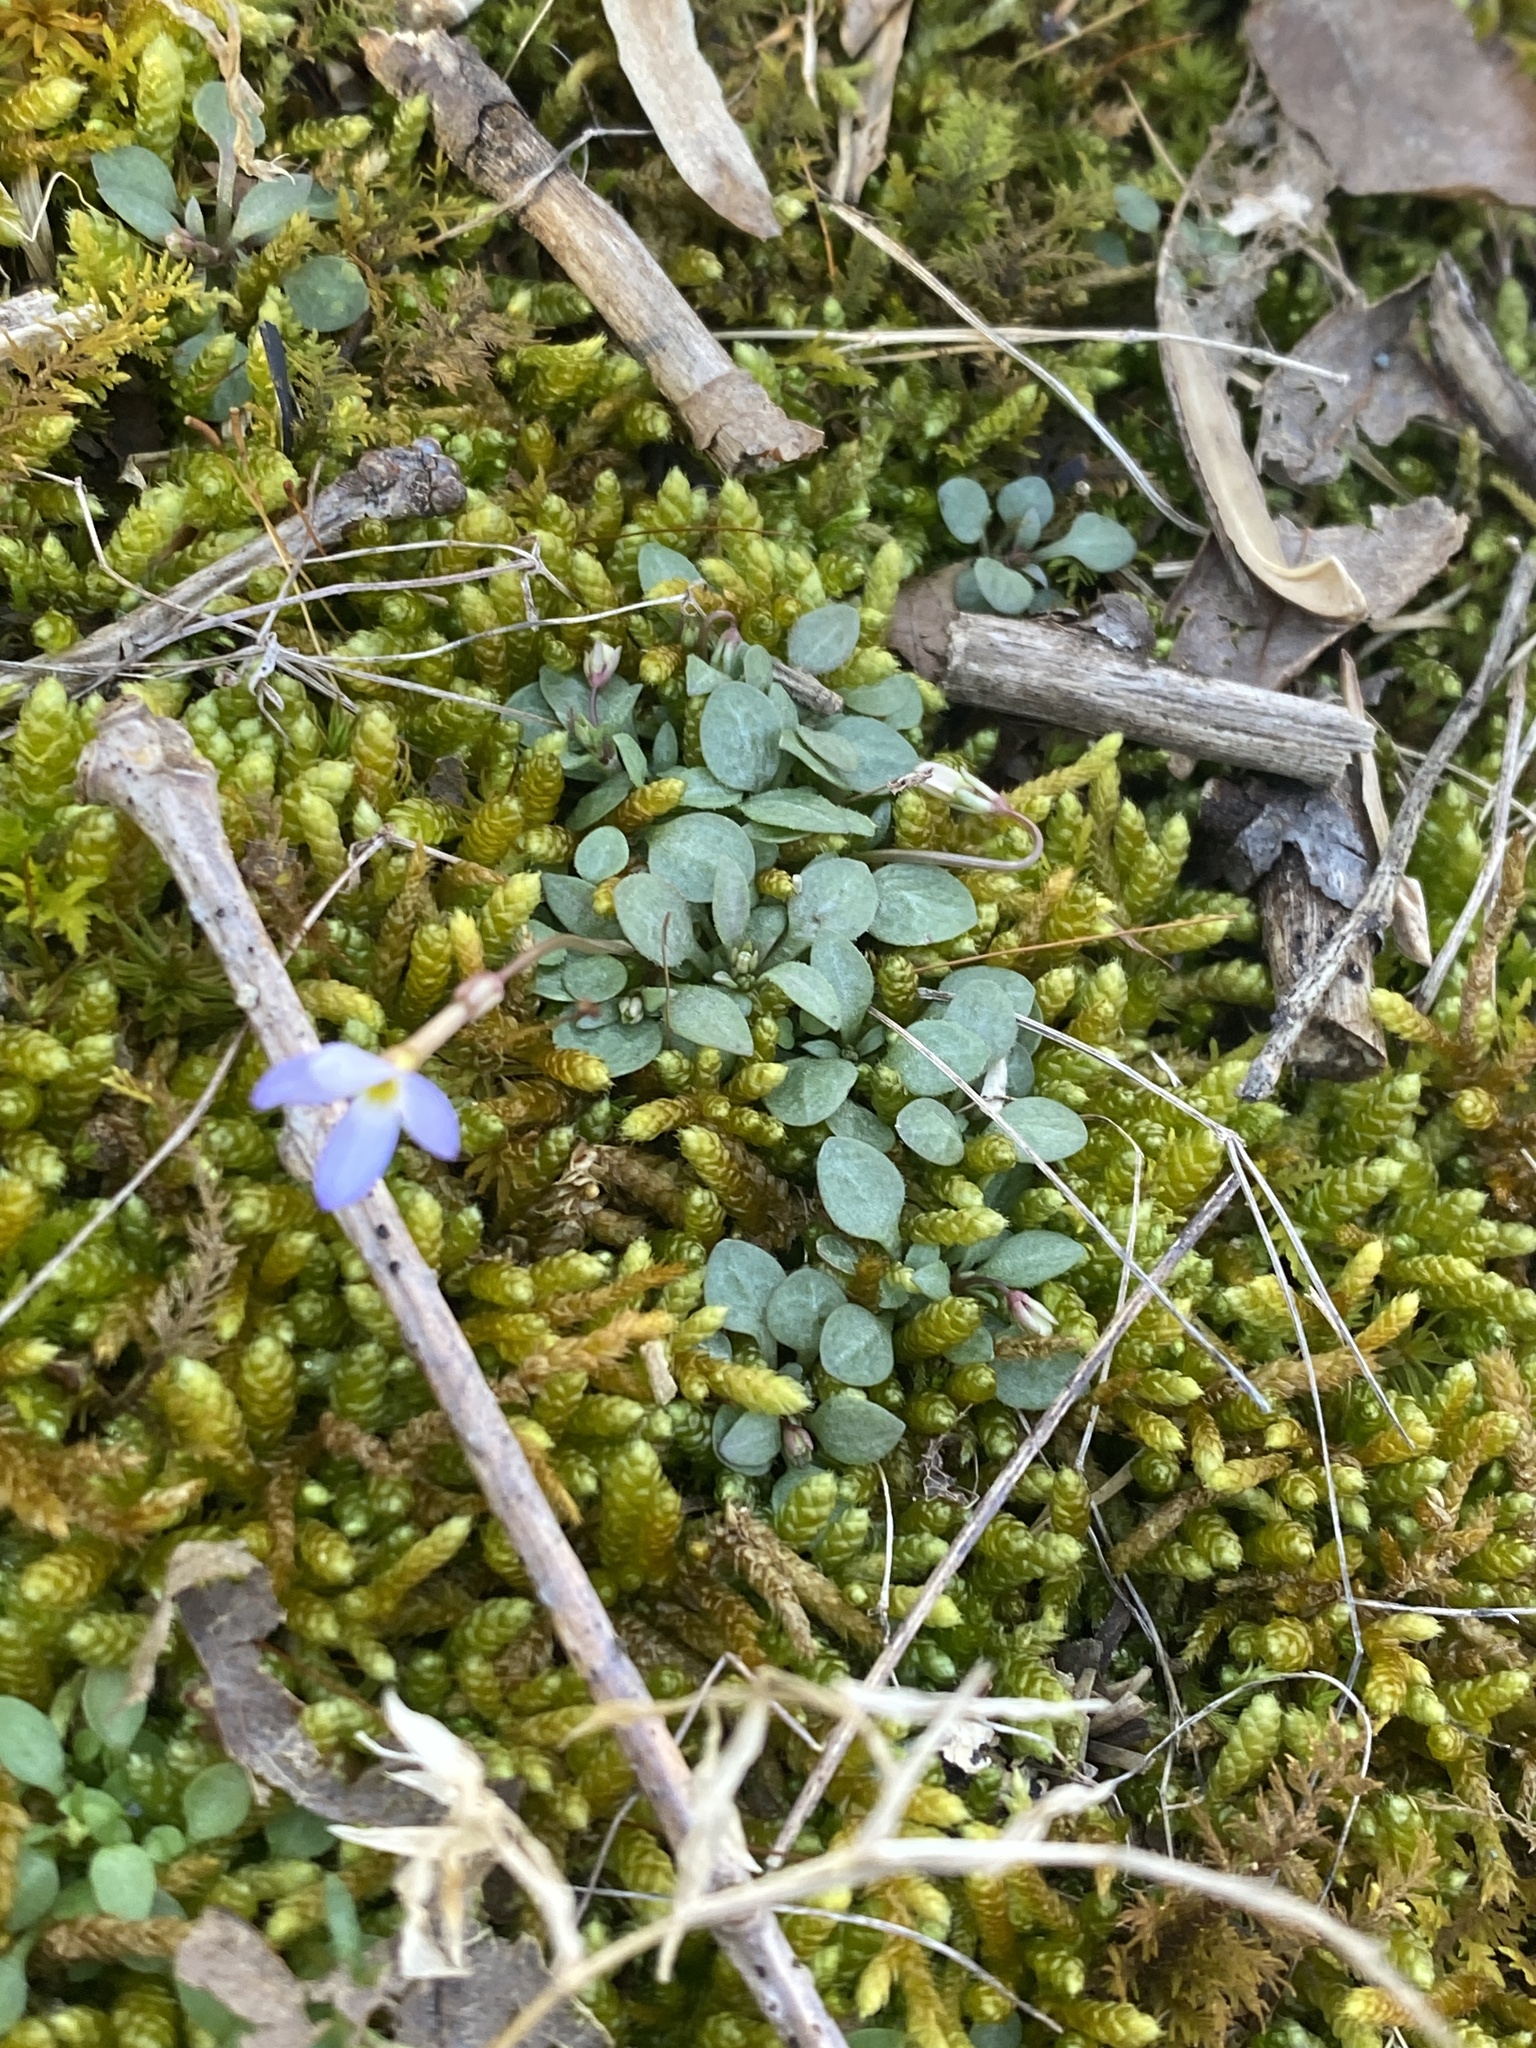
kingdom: Plantae
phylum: Tracheophyta
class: Magnoliopsida
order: Gentianales
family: Rubiaceae
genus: Houstonia
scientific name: Houstonia caerulea
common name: Bluets
